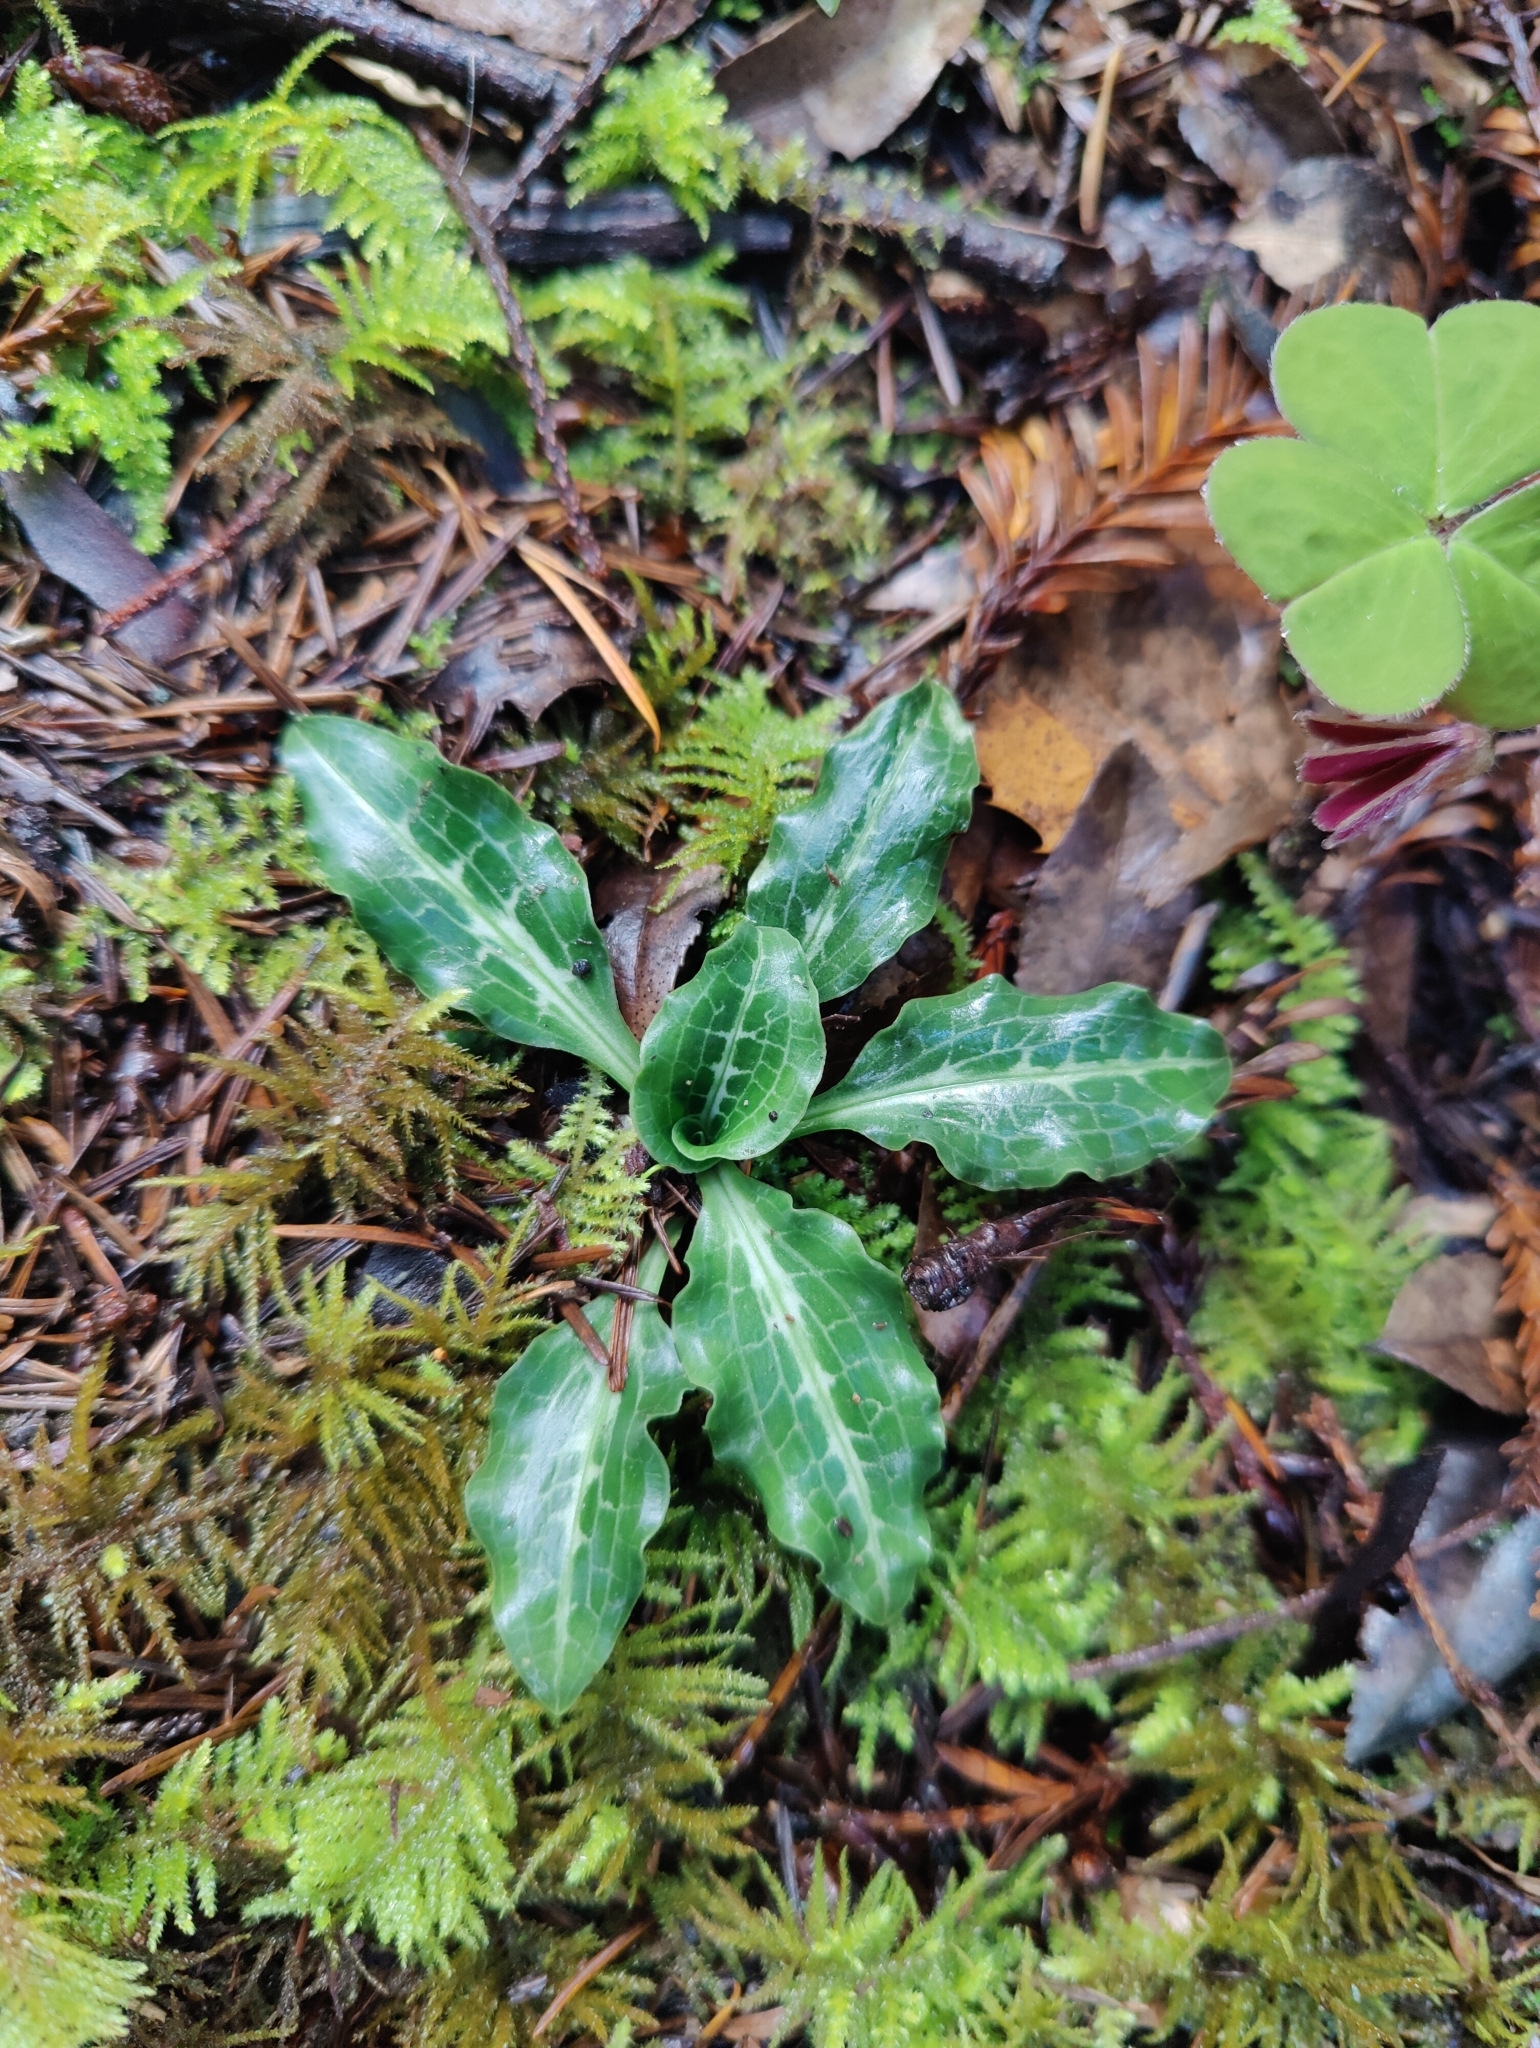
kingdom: Plantae
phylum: Tracheophyta
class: Liliopsida
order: Asparagales
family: Orchidaceae
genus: Goodyera
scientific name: Goodyera oblongifolia
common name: Giant rattlesnake-plantain
